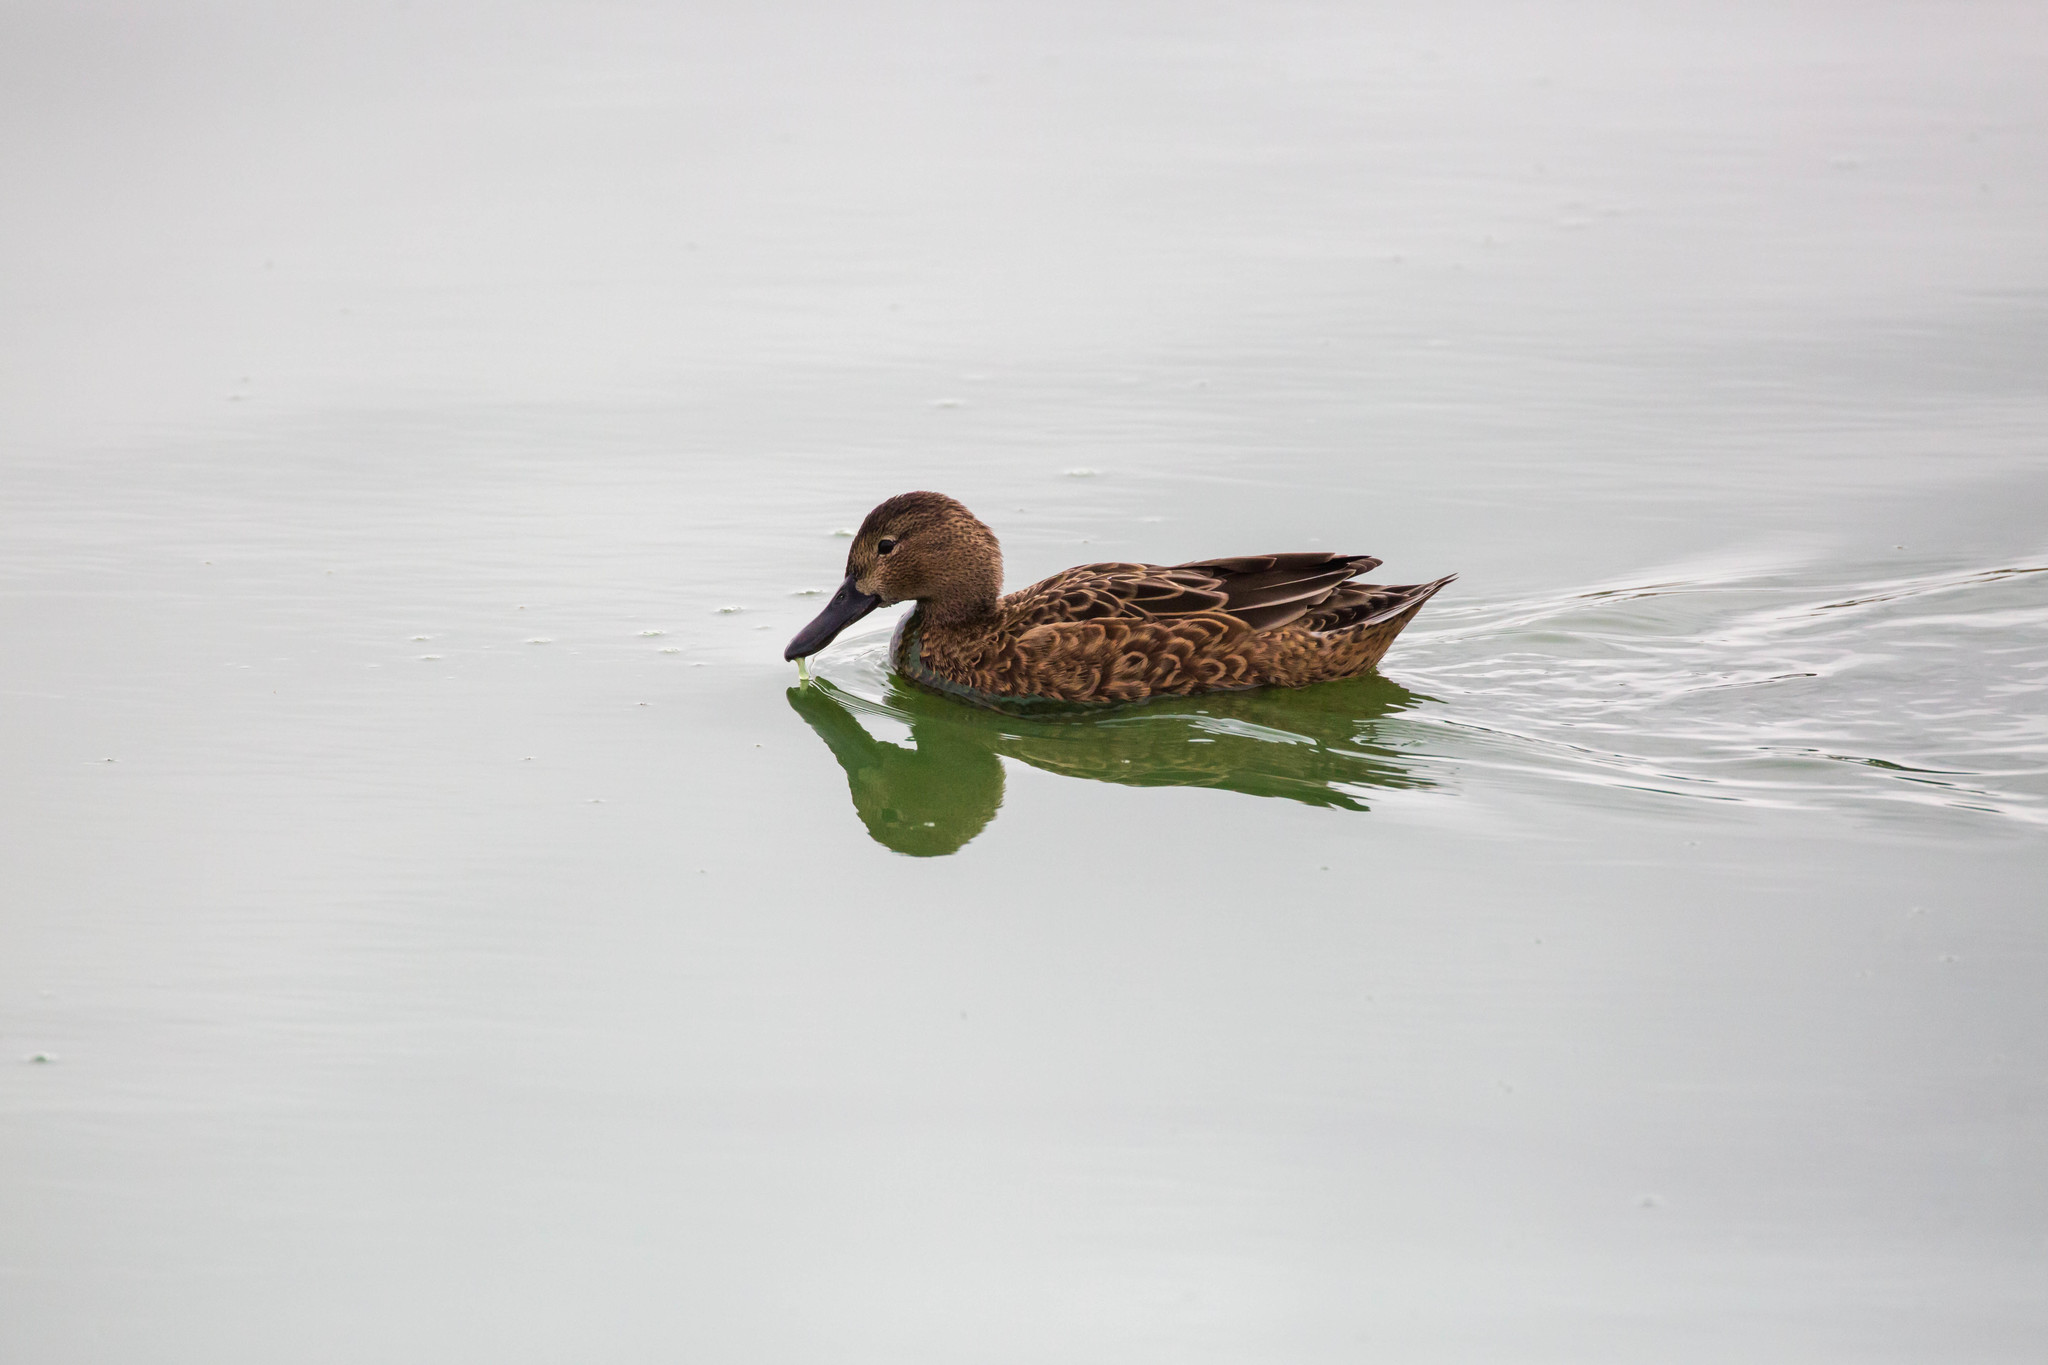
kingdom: Animalia
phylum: Chordata
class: Aves
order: Anseriformes
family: Anatidae
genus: Spatula
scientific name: Spatula cyanoptera
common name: Cinnamon teal
